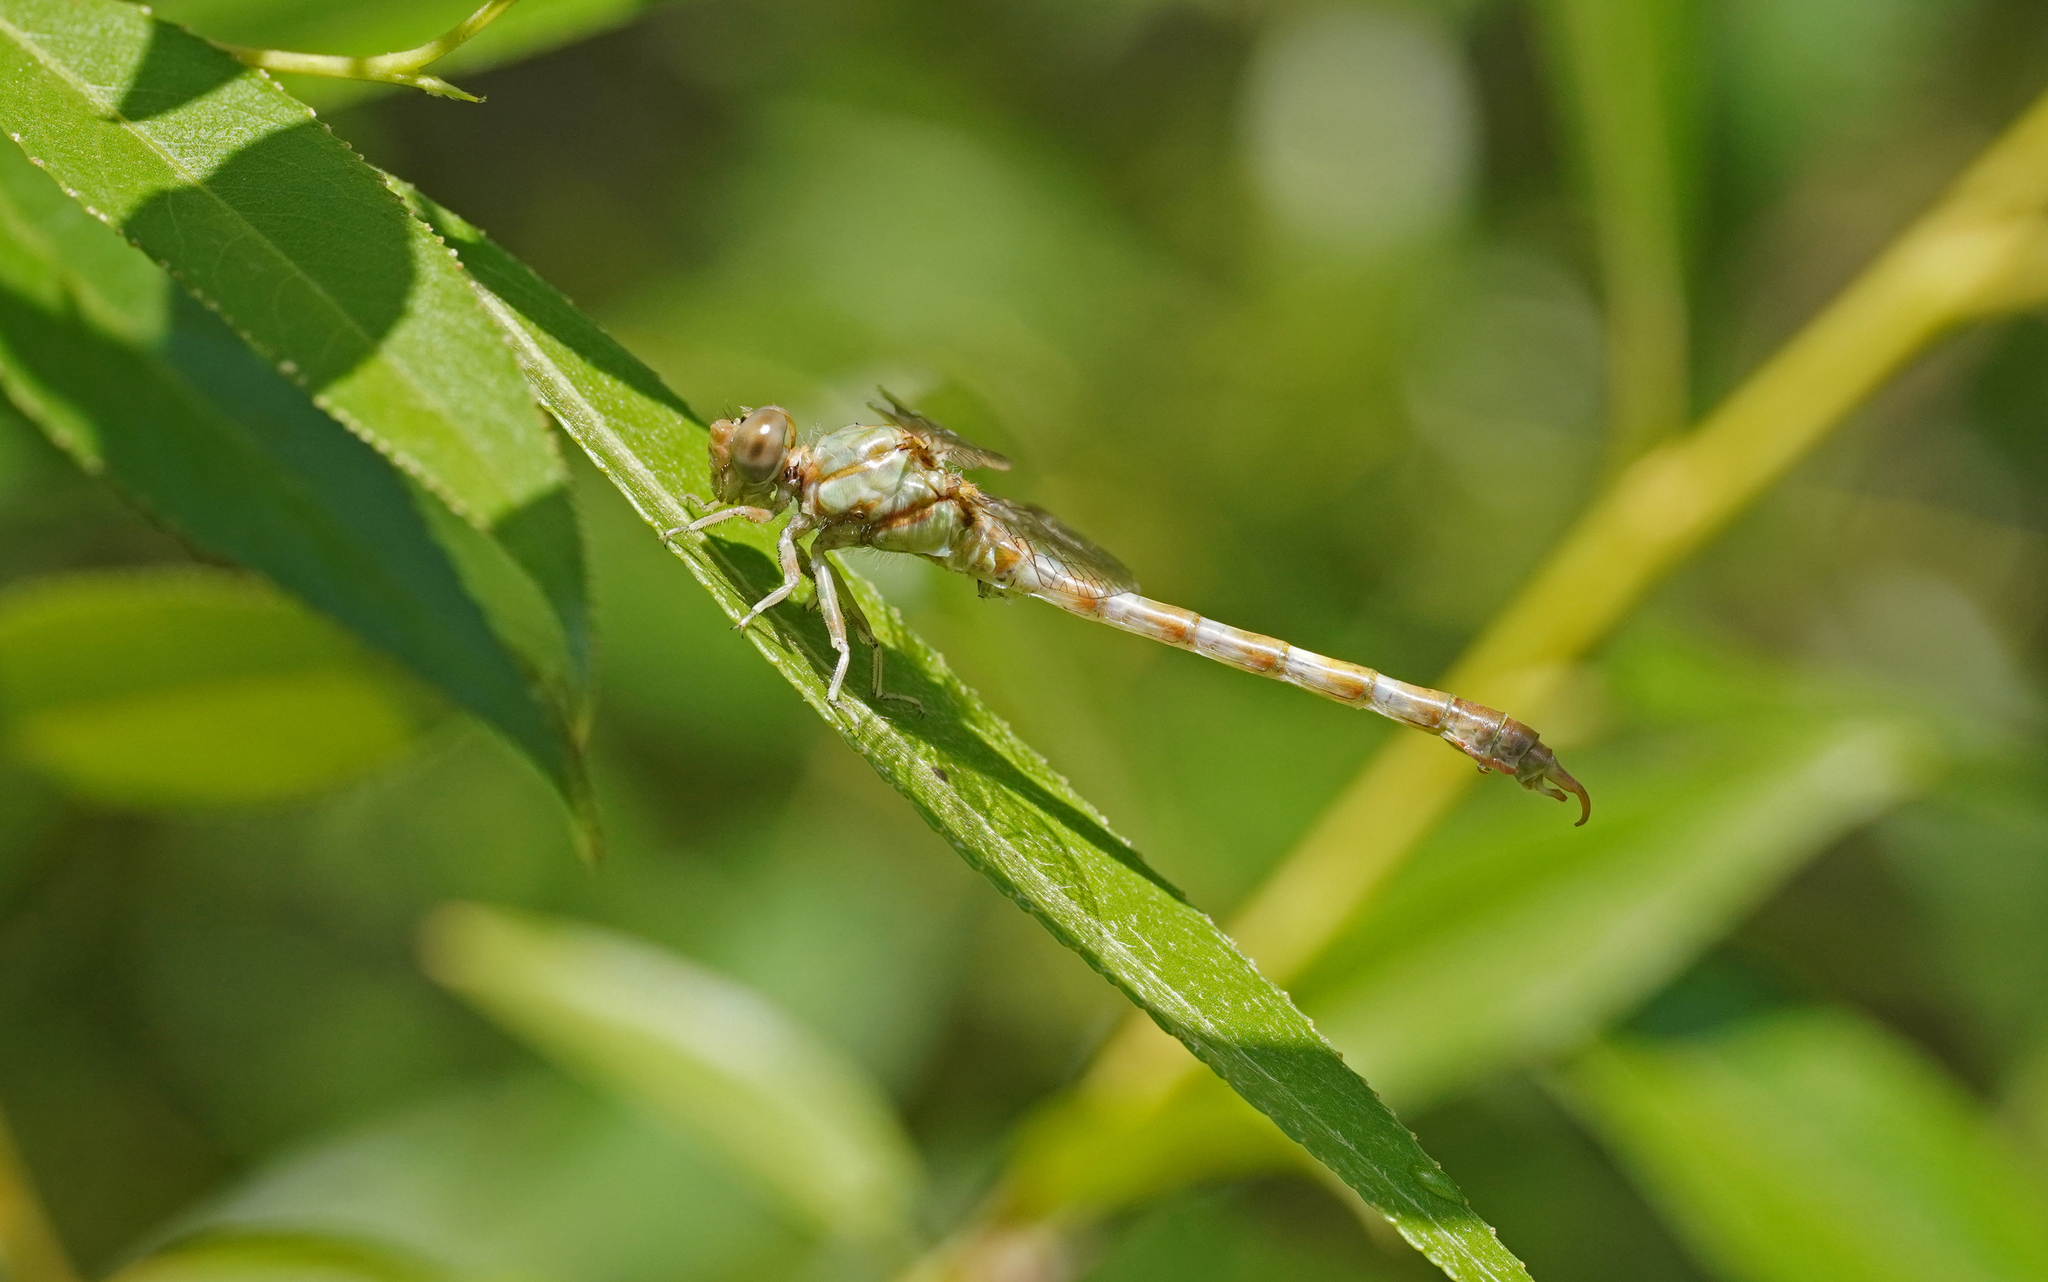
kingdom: Animalia
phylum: Arthropoda
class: Insecta
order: Odonata
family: Gomphidae
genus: Paragomphus
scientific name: Paragomphus genei
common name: Common hooktail
